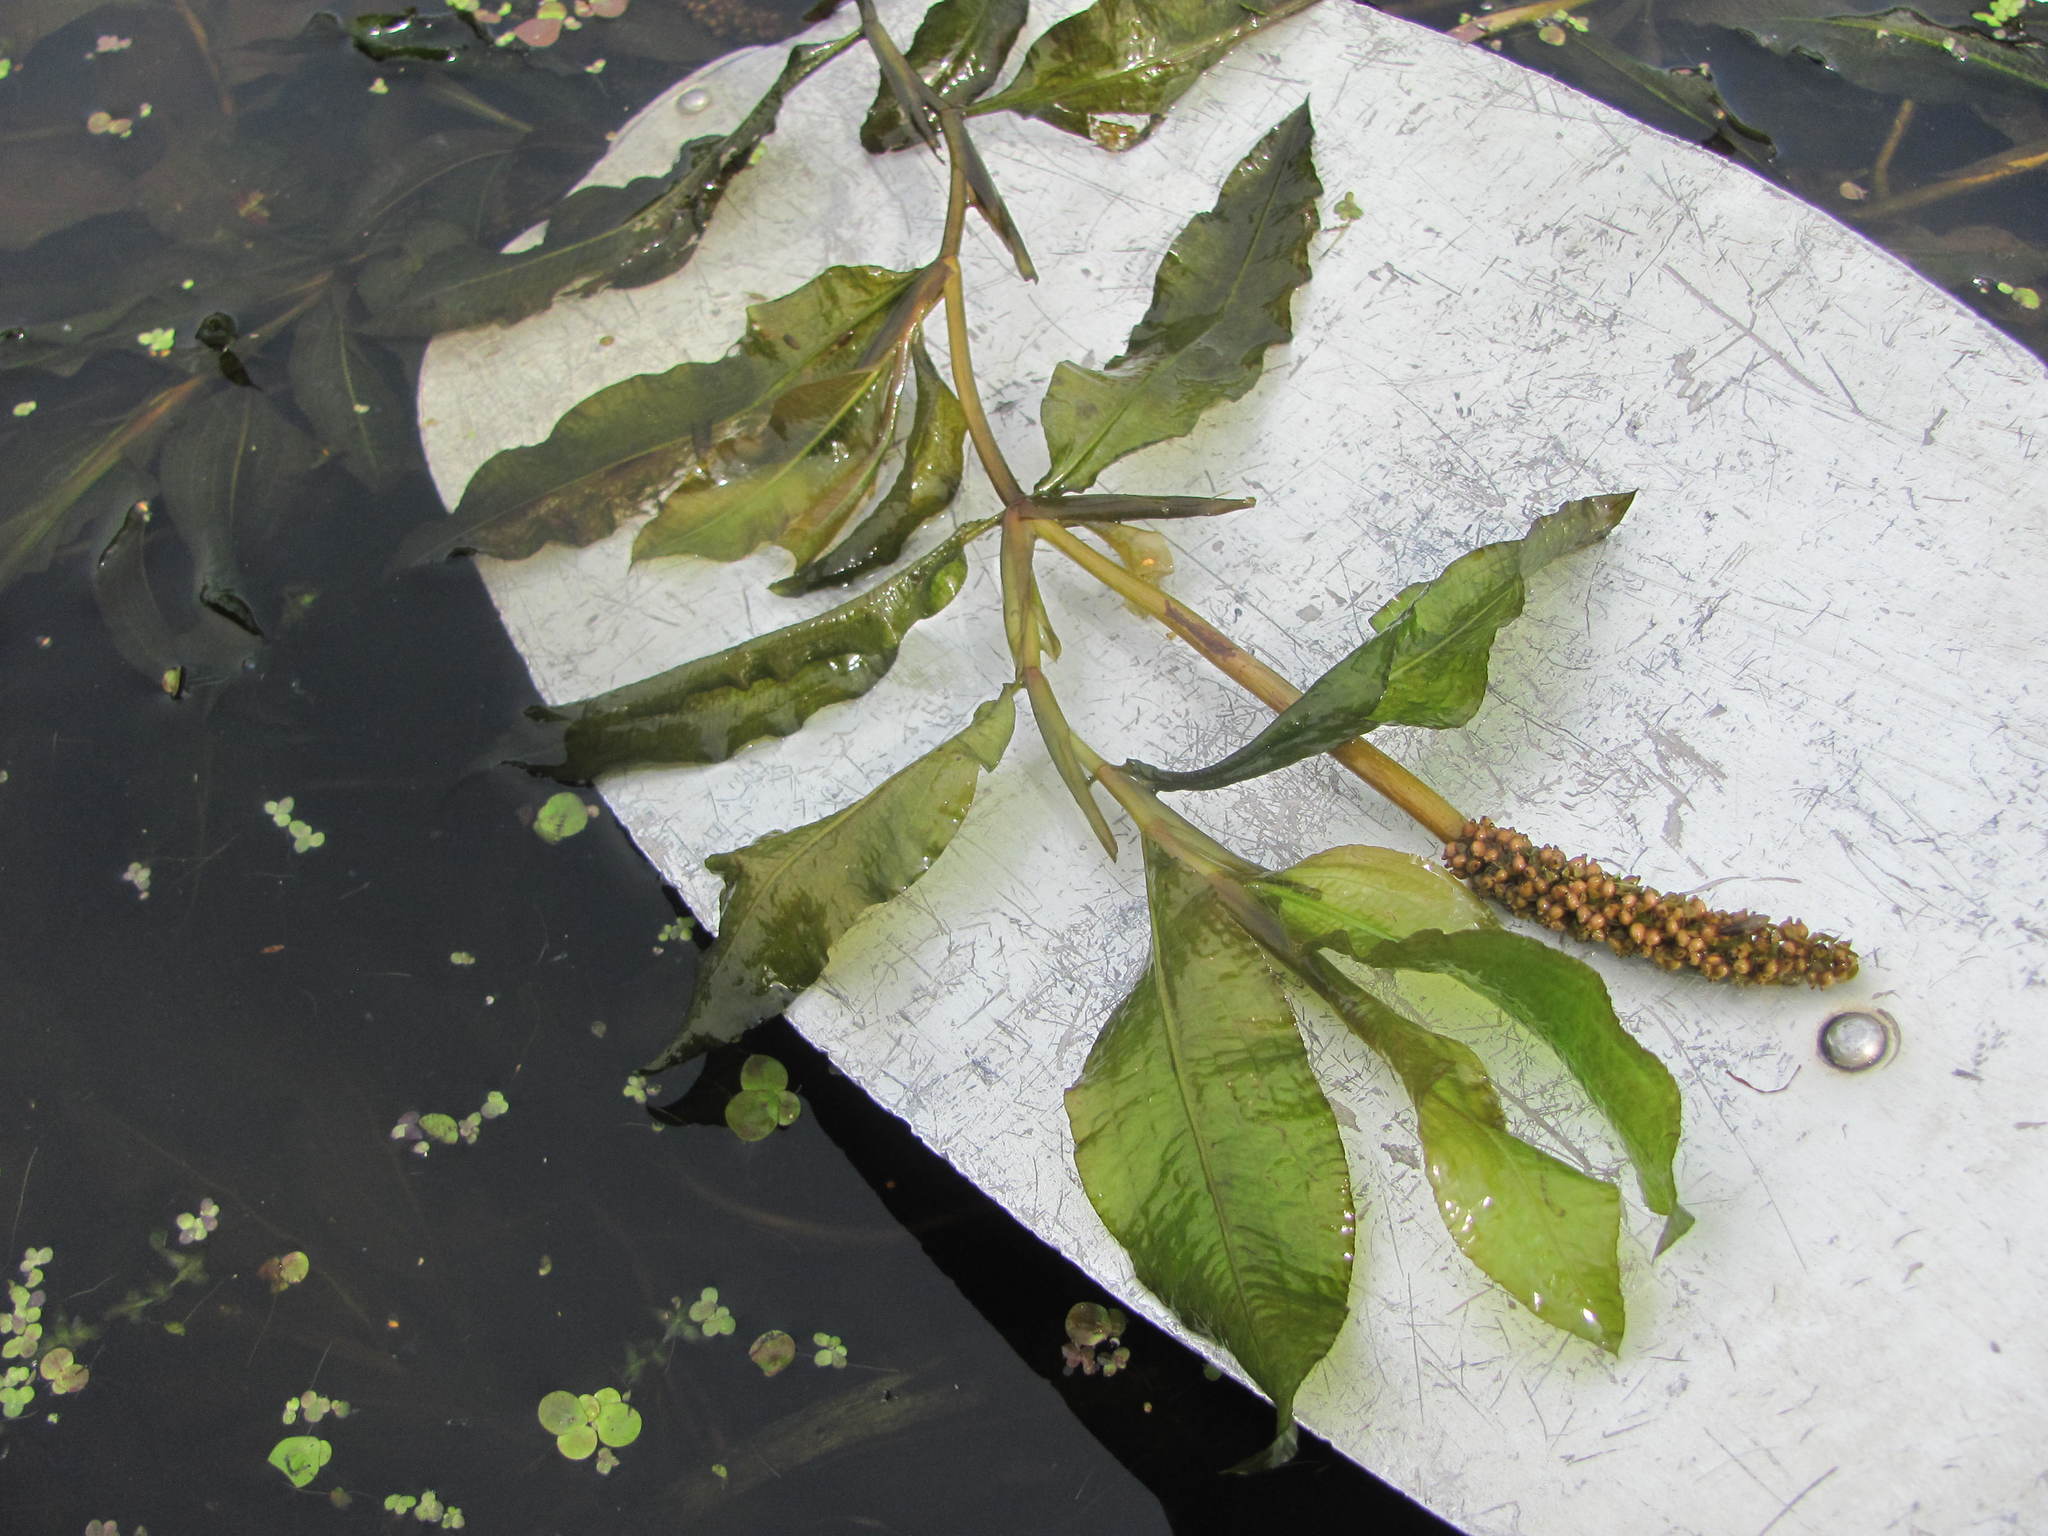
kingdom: Plantae
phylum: Tracheophyta
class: Liliopsida
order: Alismatales
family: Potamogetonaceae
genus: Potamogeton
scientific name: Potamogeton lucens
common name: Shining pondweed
